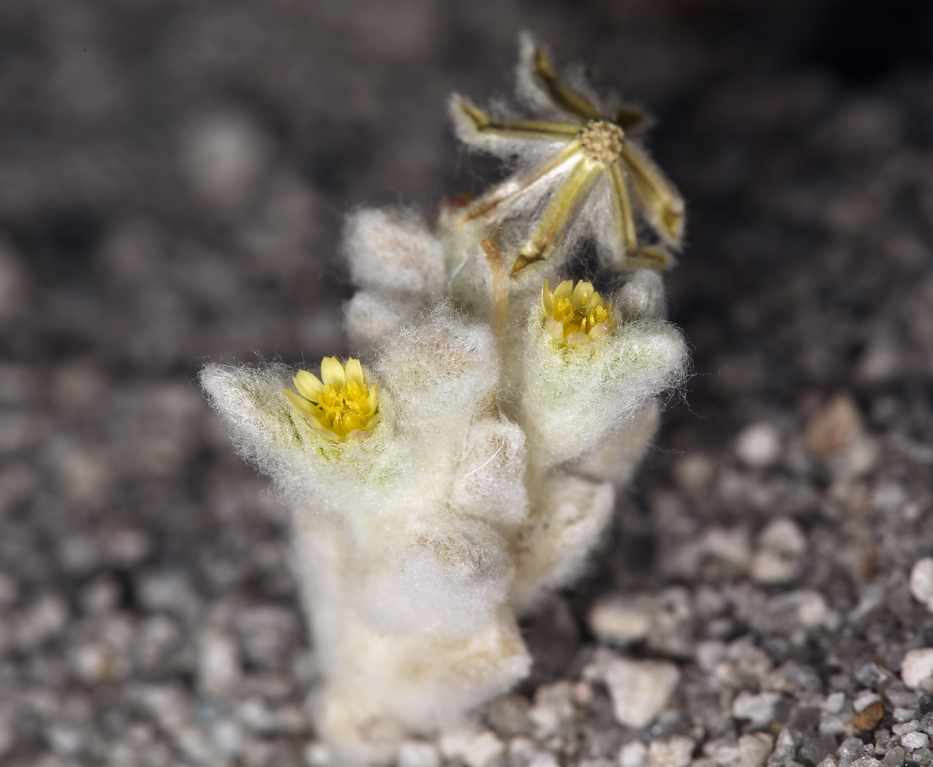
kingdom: Plantae
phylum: Tracheophyta
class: Magnoliopsida
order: Asterales
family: Asteraceae
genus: Eatonella
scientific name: Eatonella nivea
